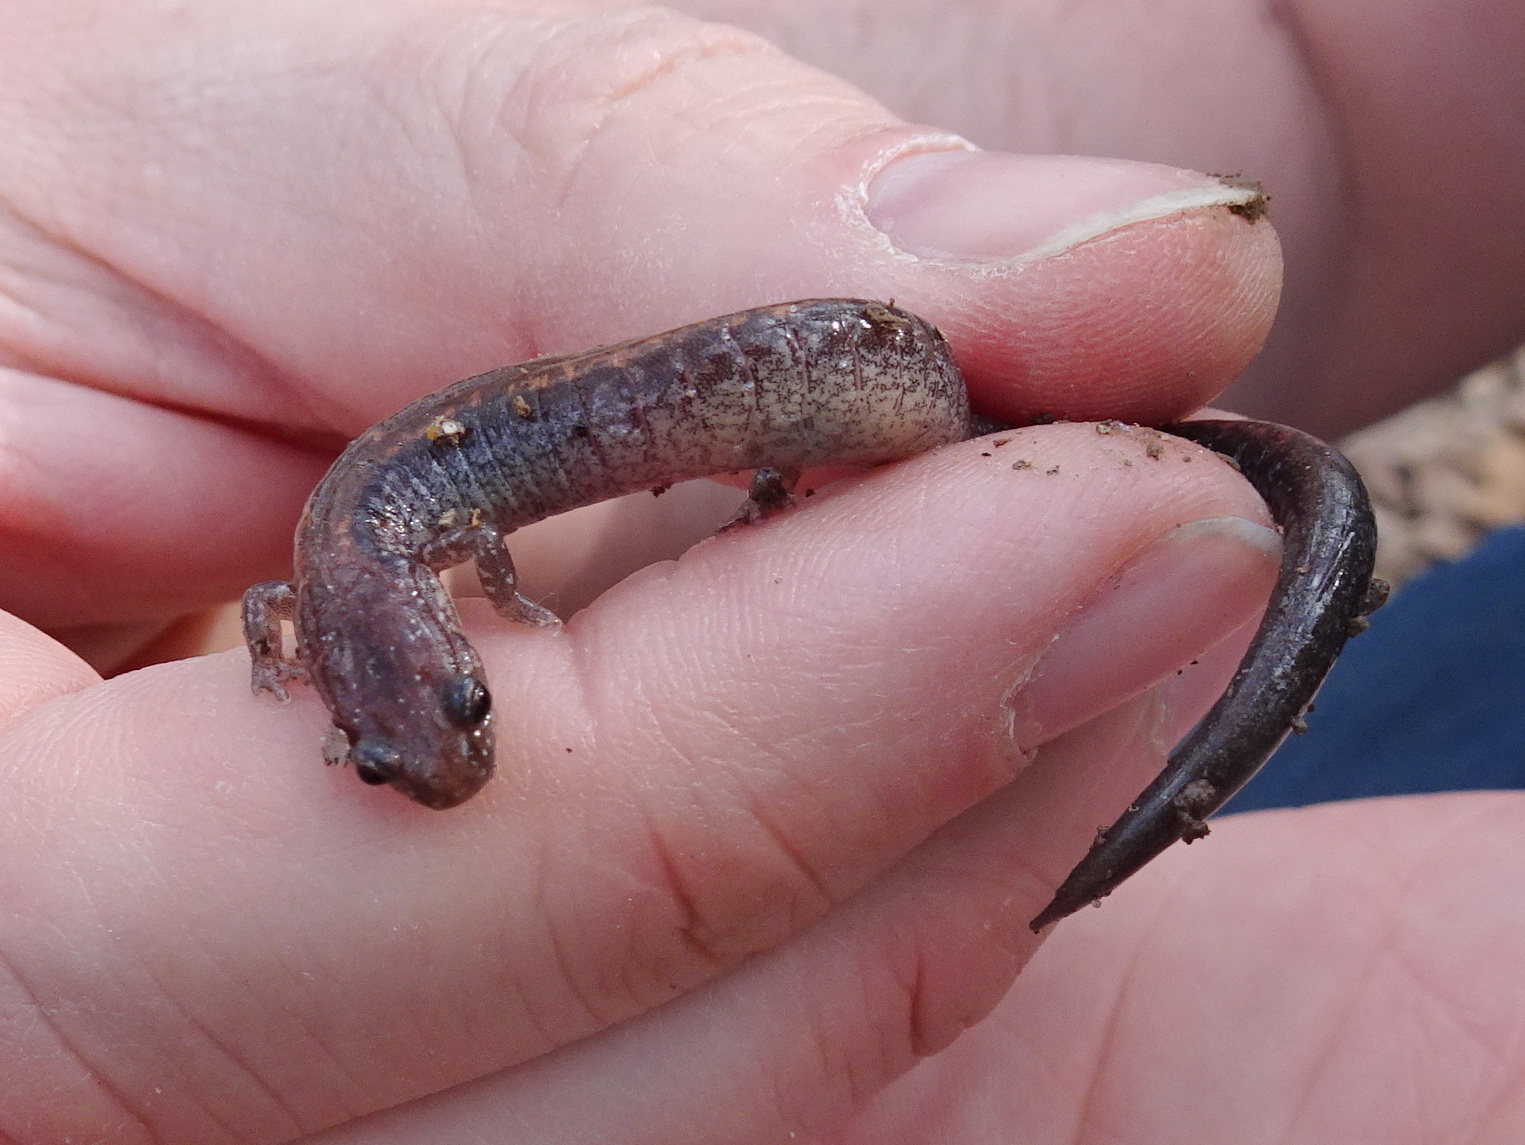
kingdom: Animalia
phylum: Chordata
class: Amphibia
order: Caudata
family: Plethodontidae
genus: Plethodon
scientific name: Plethodon cinereus
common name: Redback salamander
